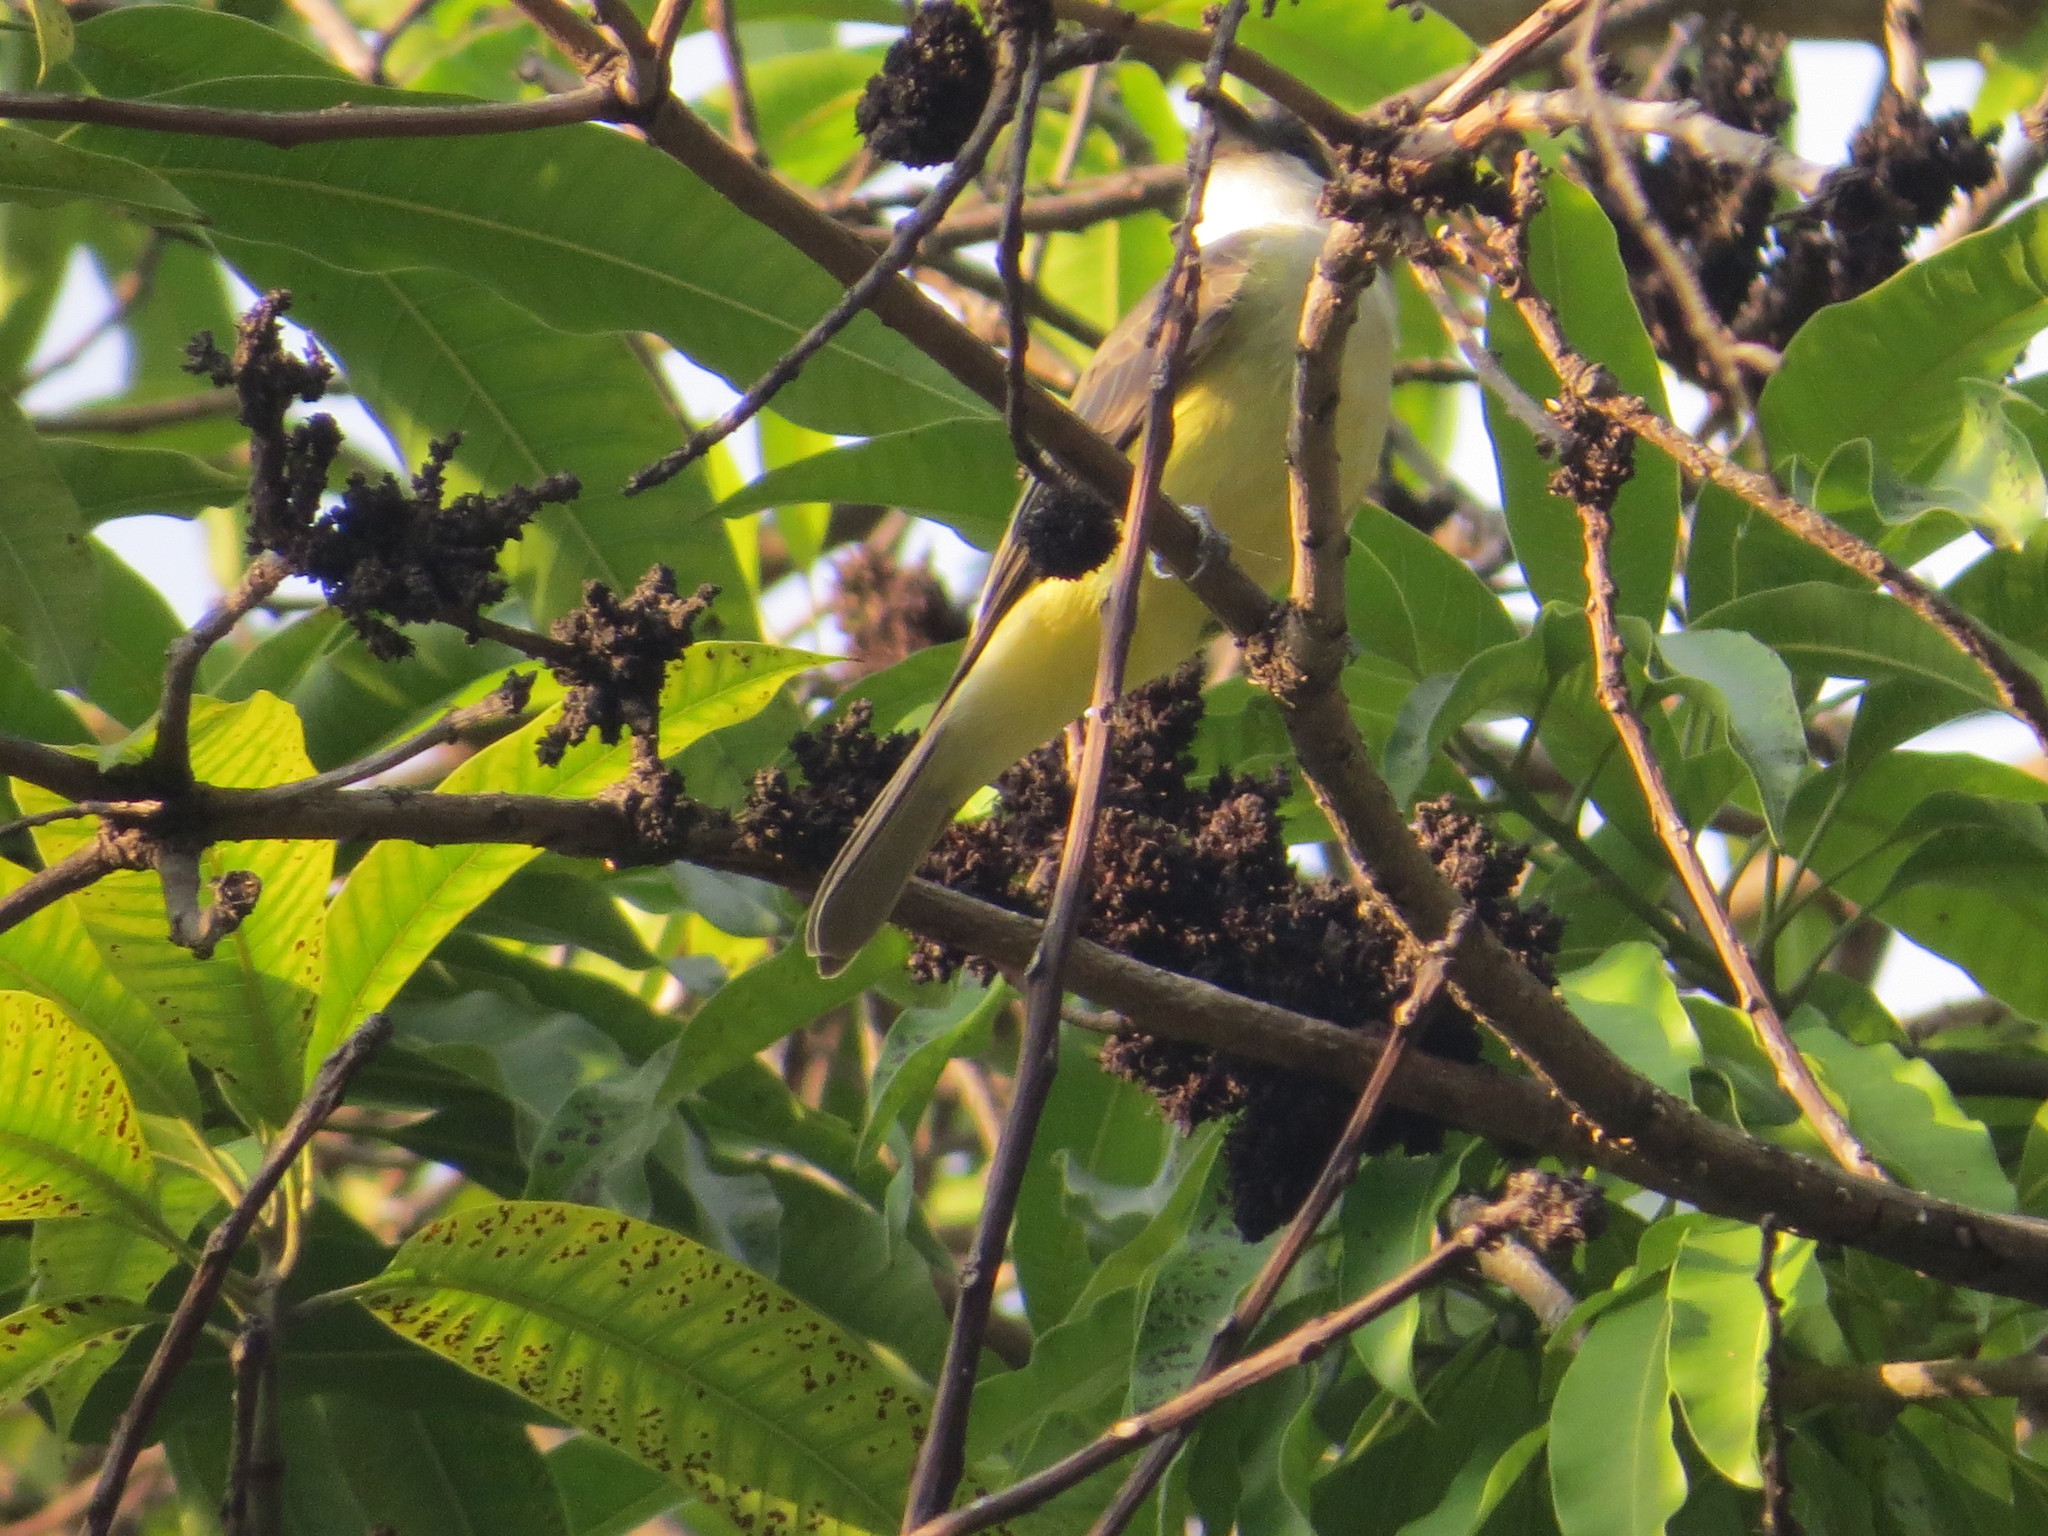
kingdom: Animalia
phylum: Chordata
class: Aves
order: Passeriformes
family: Tyrannidae
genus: Tyrannus
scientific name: Tyrannus crassirostris
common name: Thick-billed kingbird
